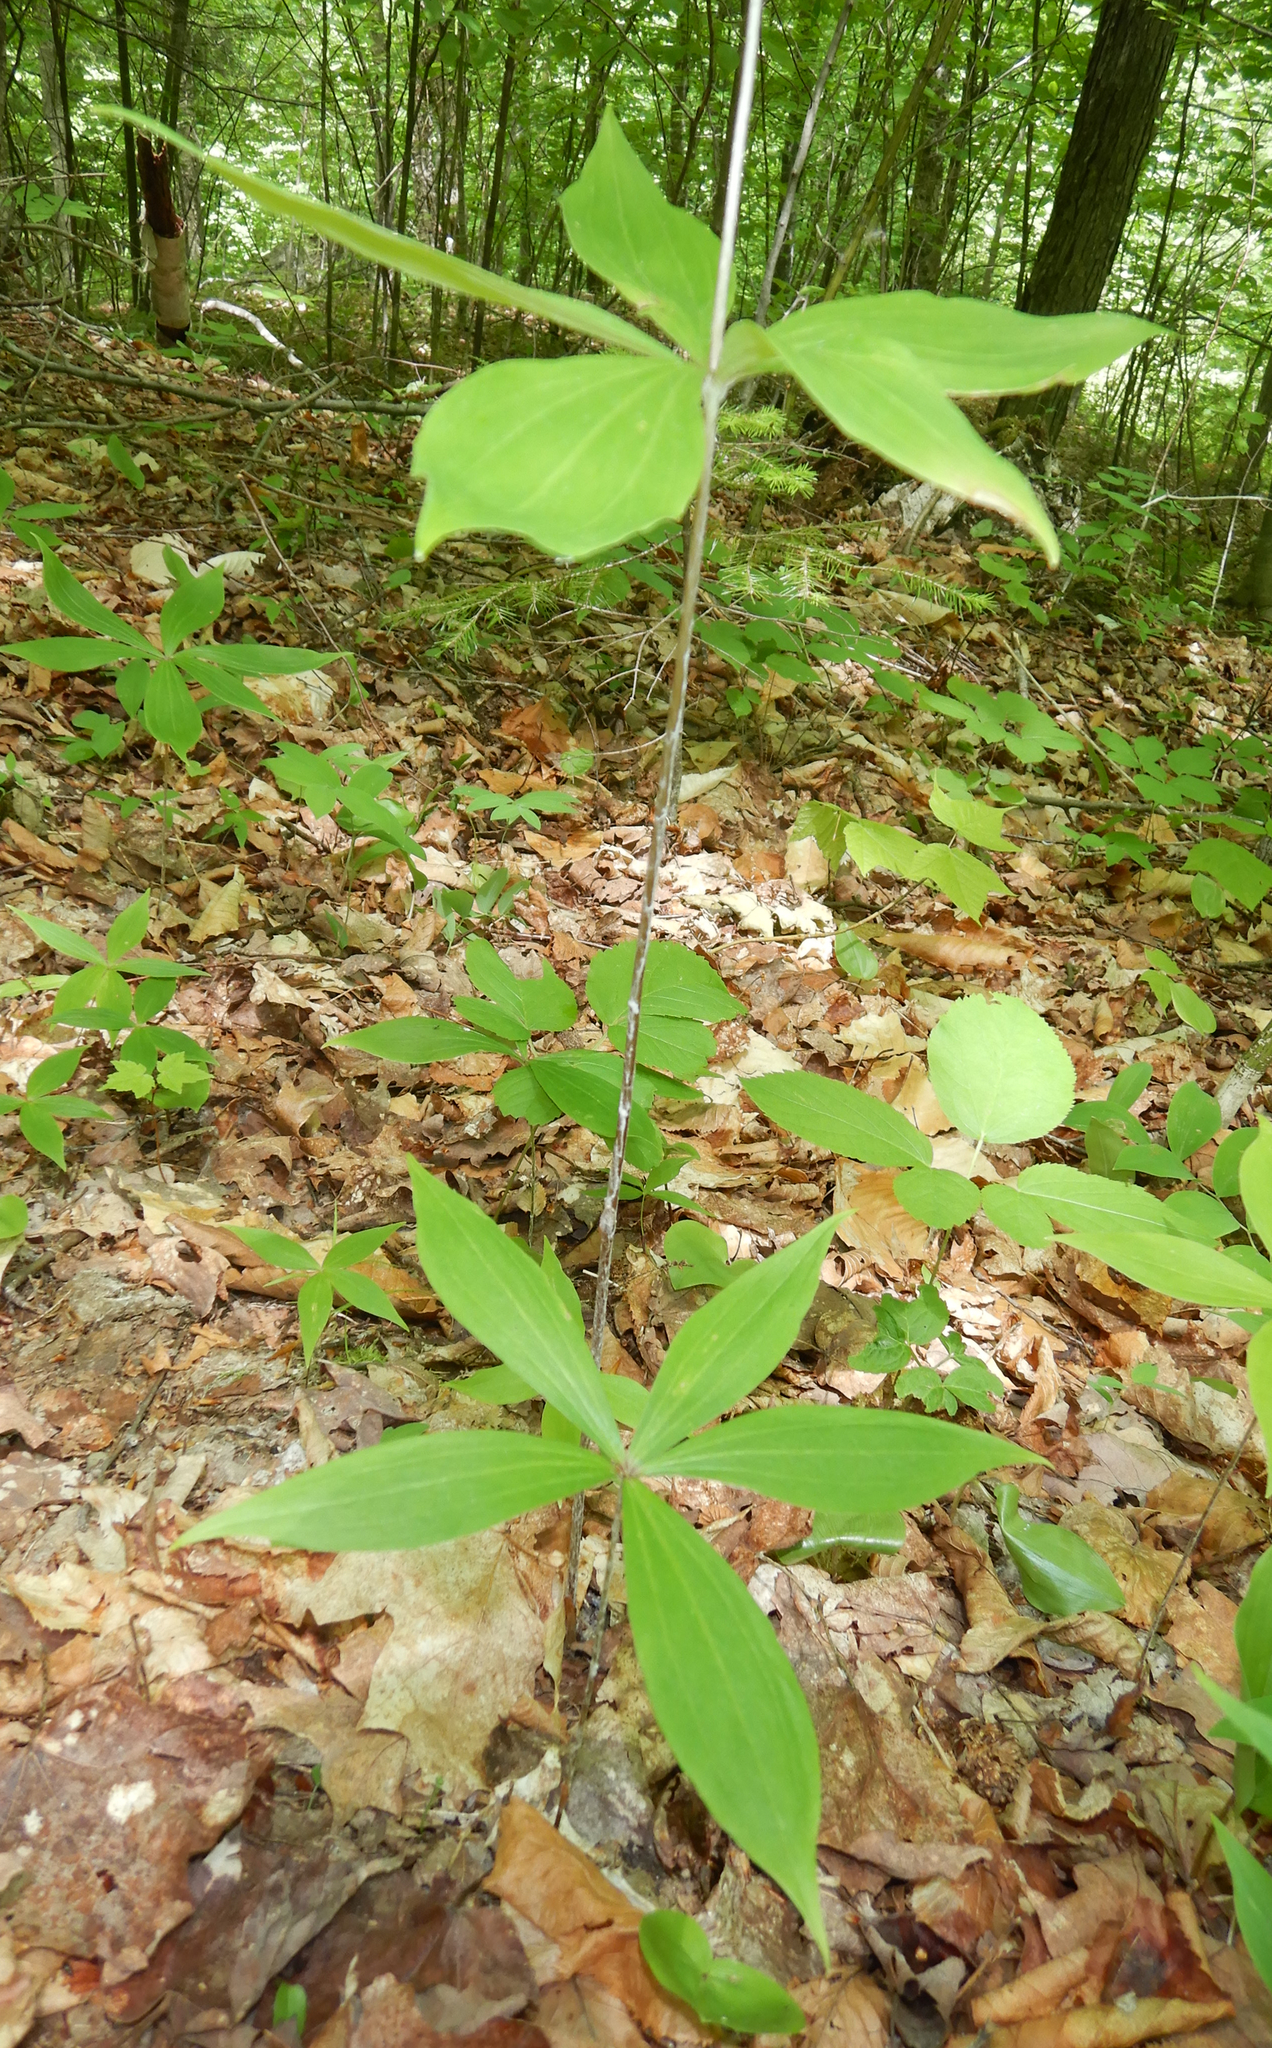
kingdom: Plantae
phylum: Tracheophyta
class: Liliopsida
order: Liliales
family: Liliaceae
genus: Medeola
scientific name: Medeola virginiana
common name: Indian cucumber-root
